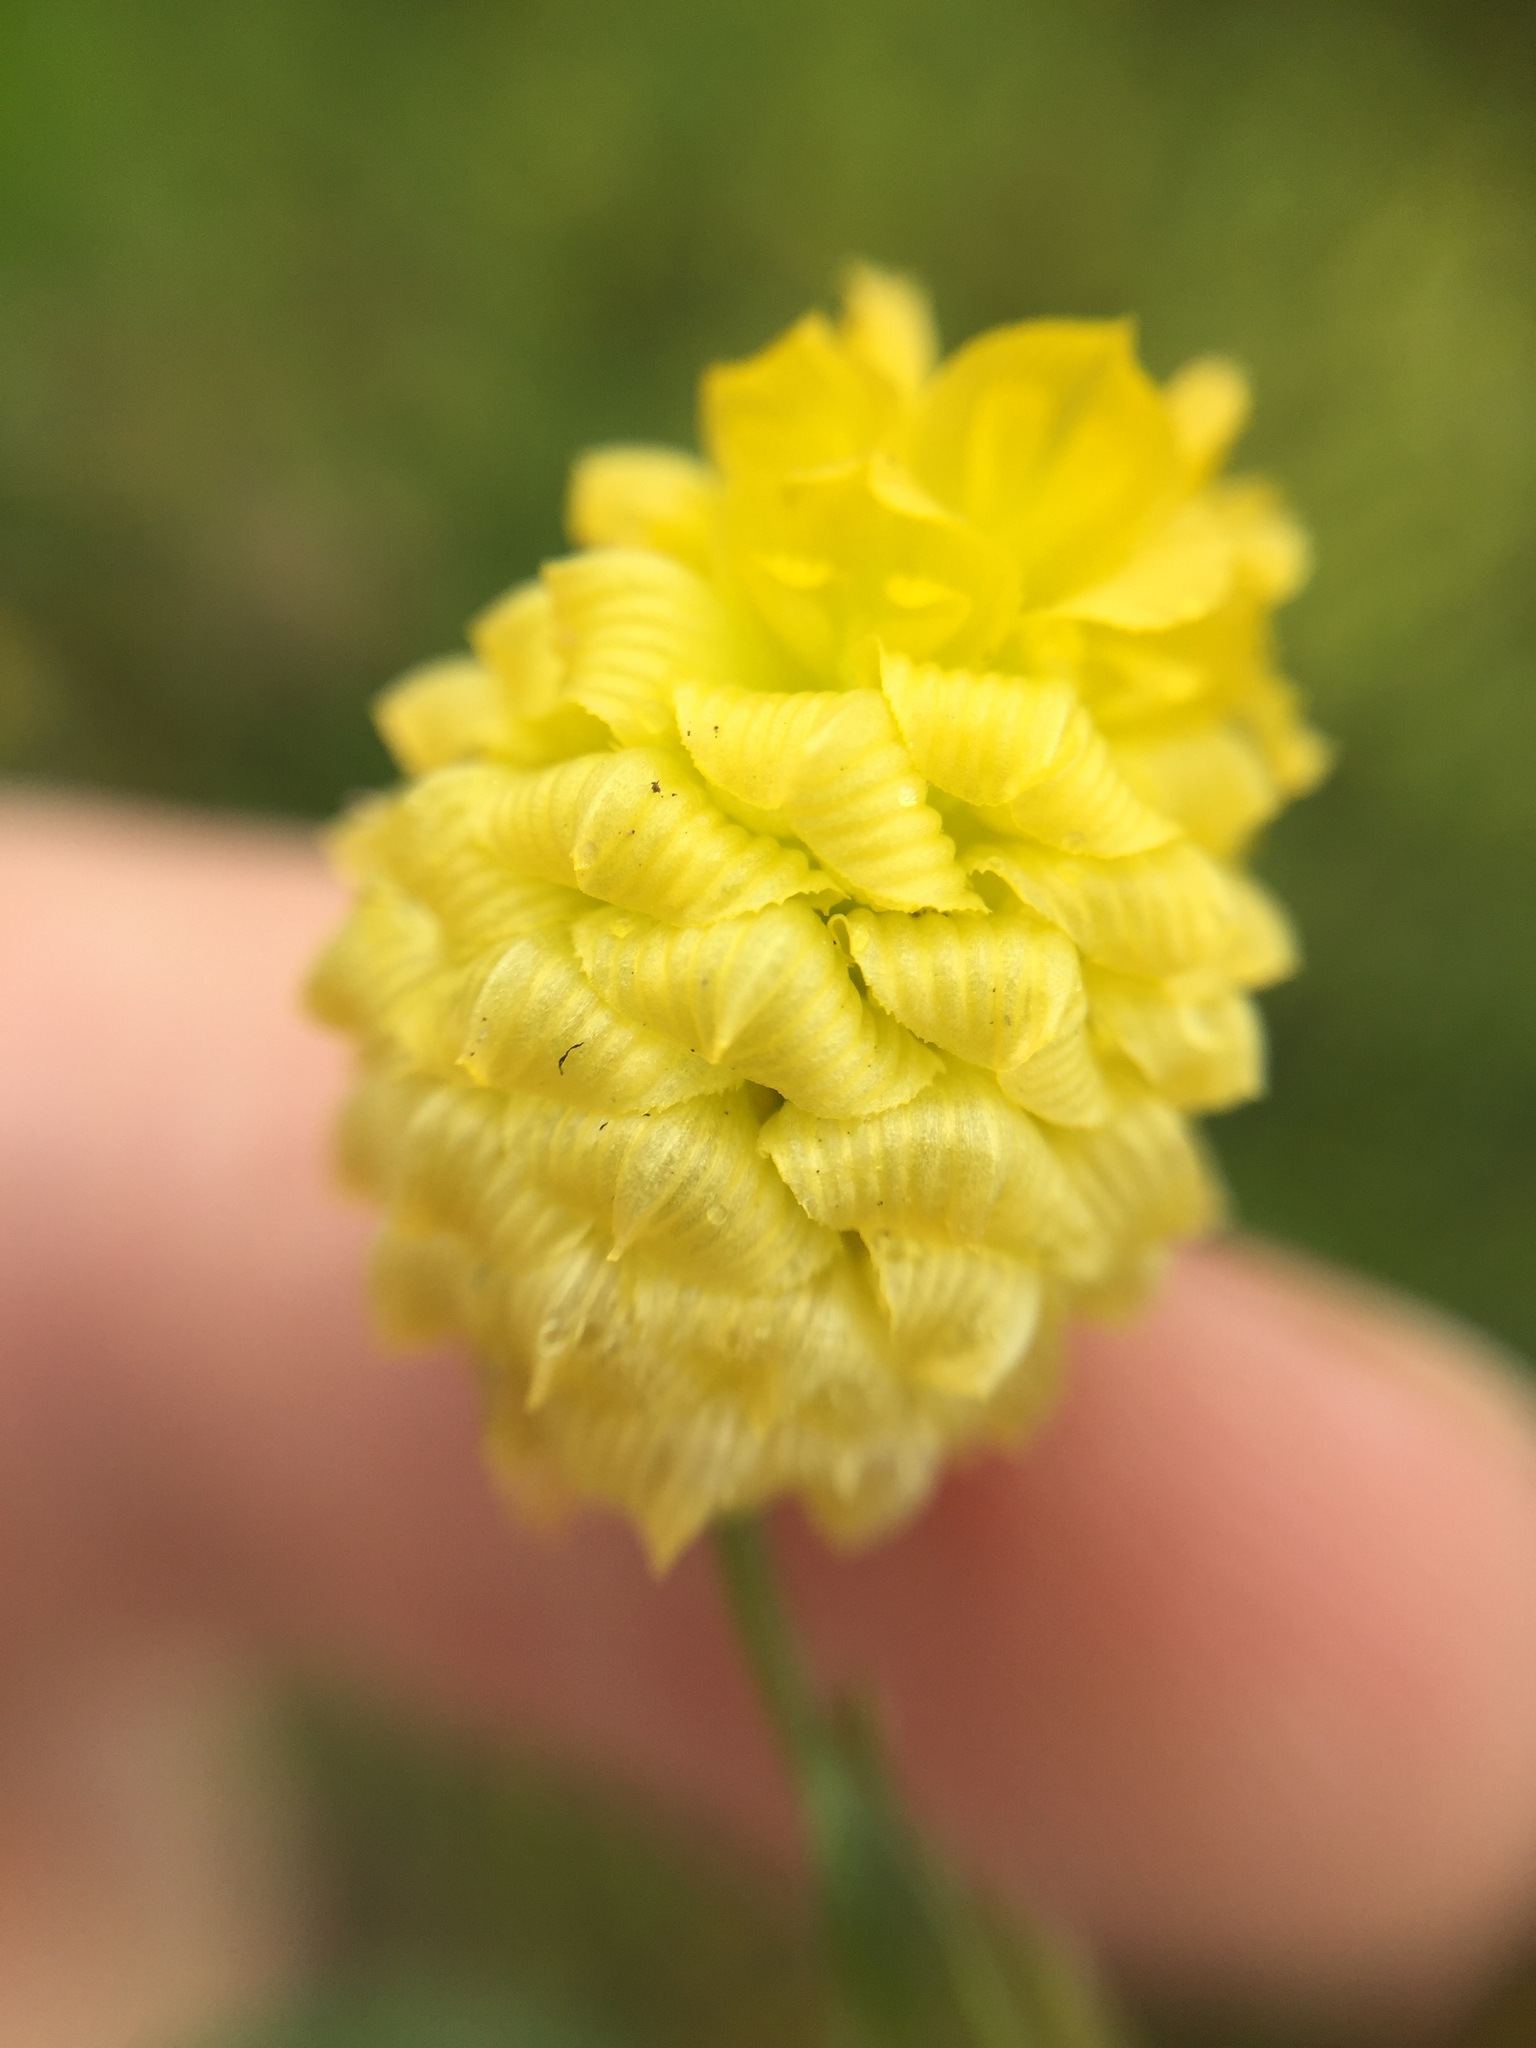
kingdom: Plantae
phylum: Tracheophyta
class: Magnoliopsida
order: Fabales
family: Fabaceae
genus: Trifolium
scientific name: Trifolium campestre
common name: Field clover
